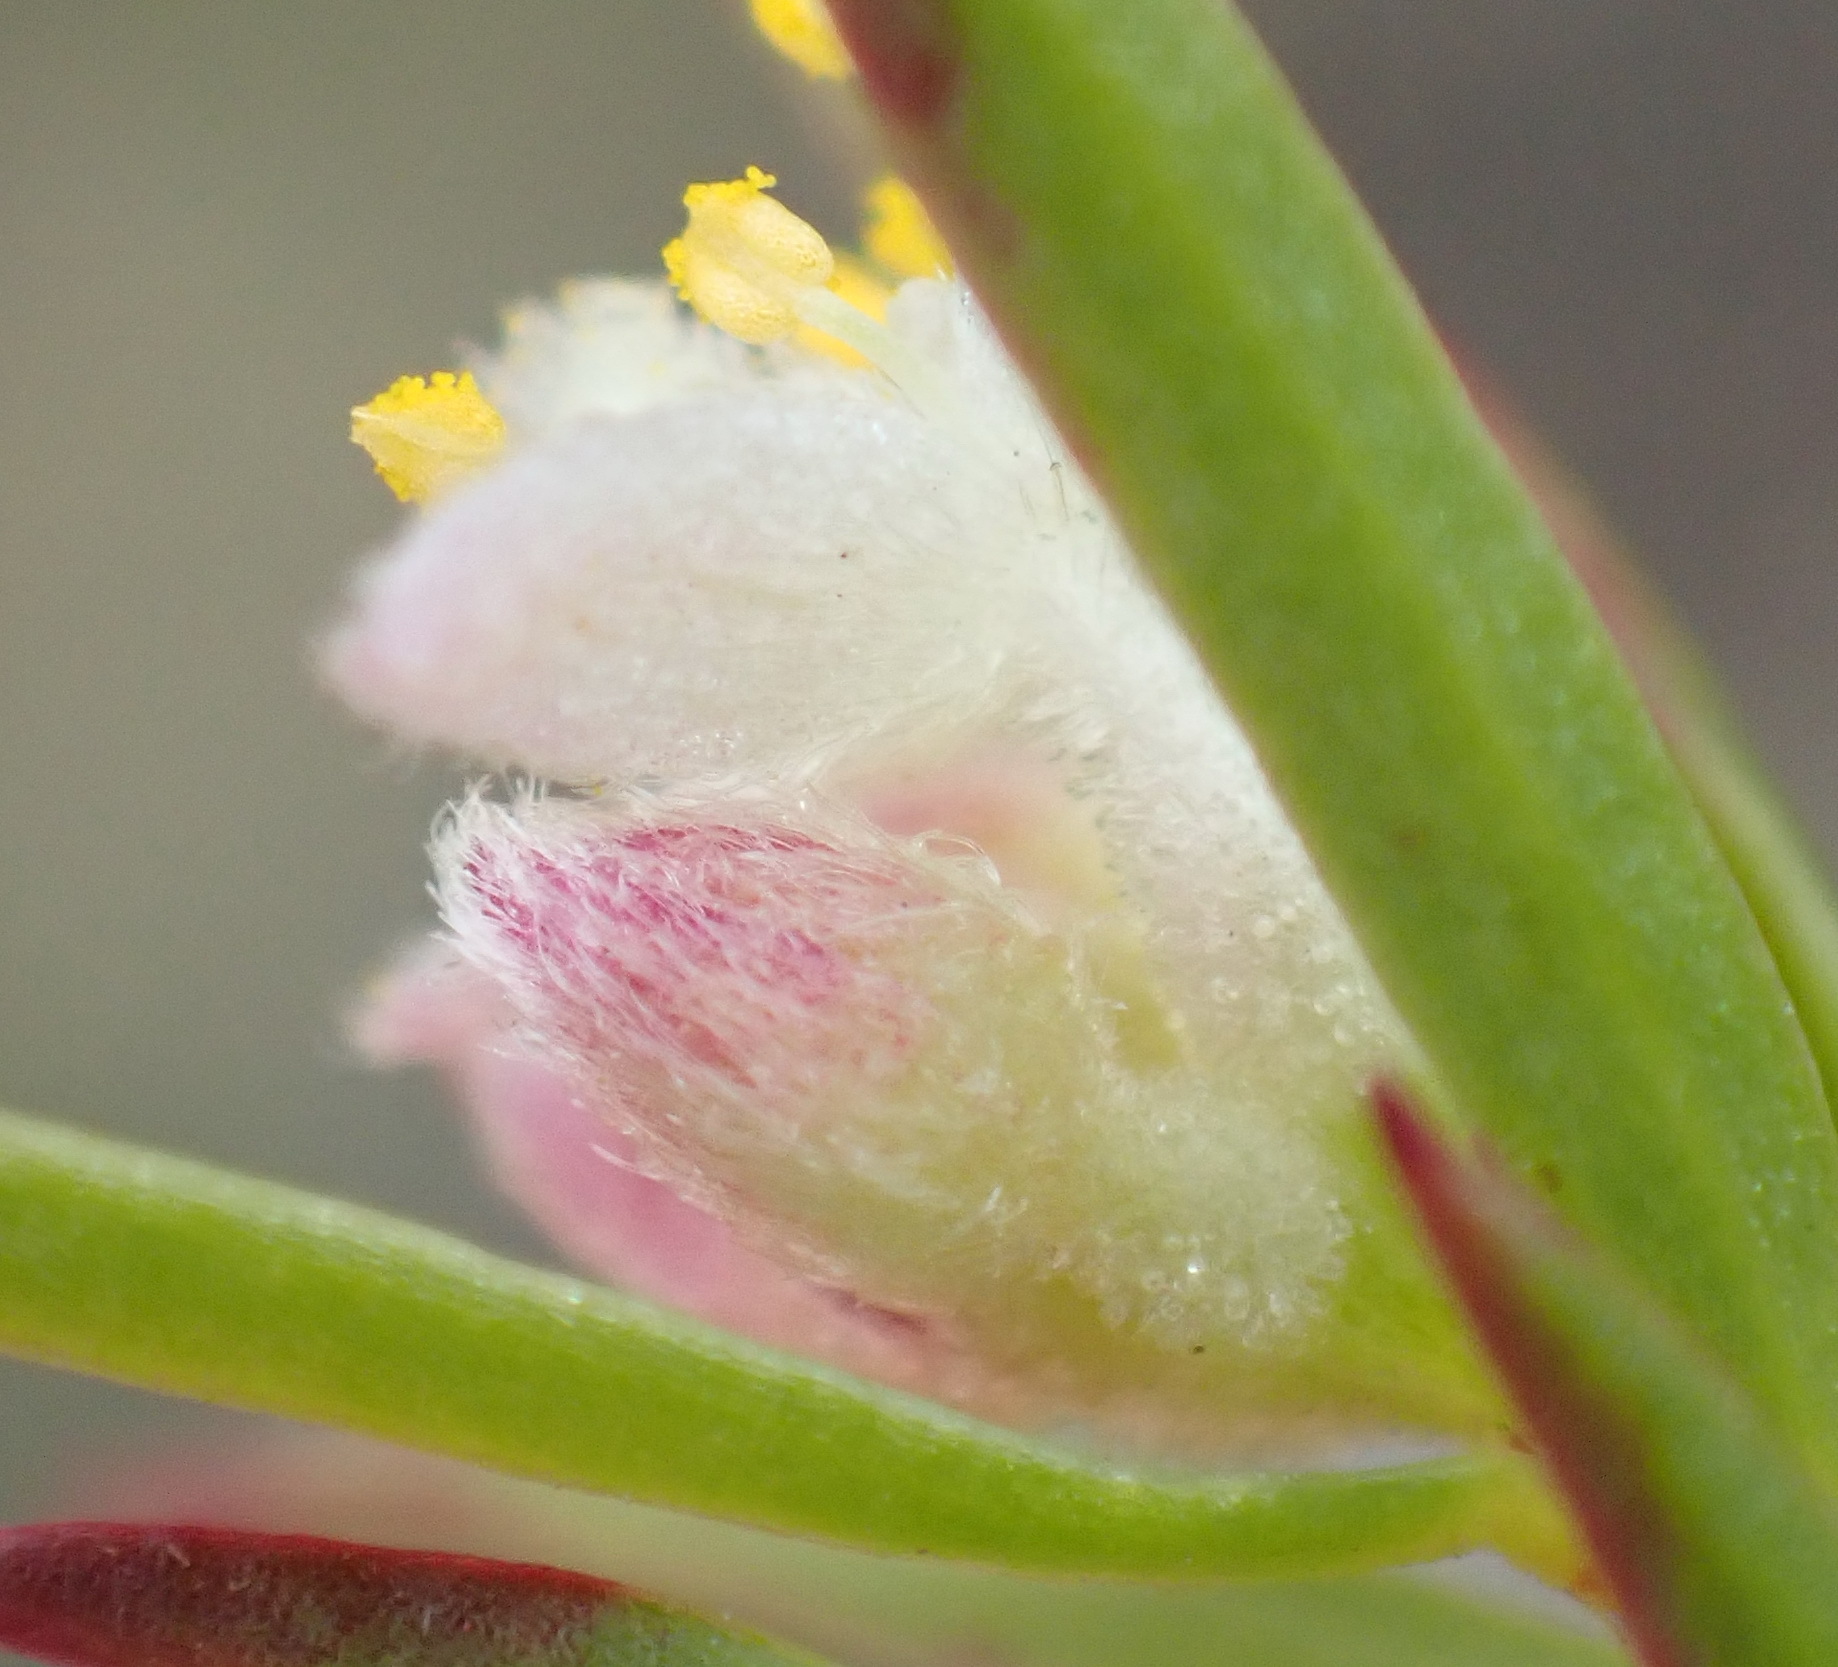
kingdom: Plantae
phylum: Tracheophyta
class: Magnoliopsida
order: Malvales
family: Thymelaeaceae
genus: Lachnaea
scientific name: Lachnaea burchellii
